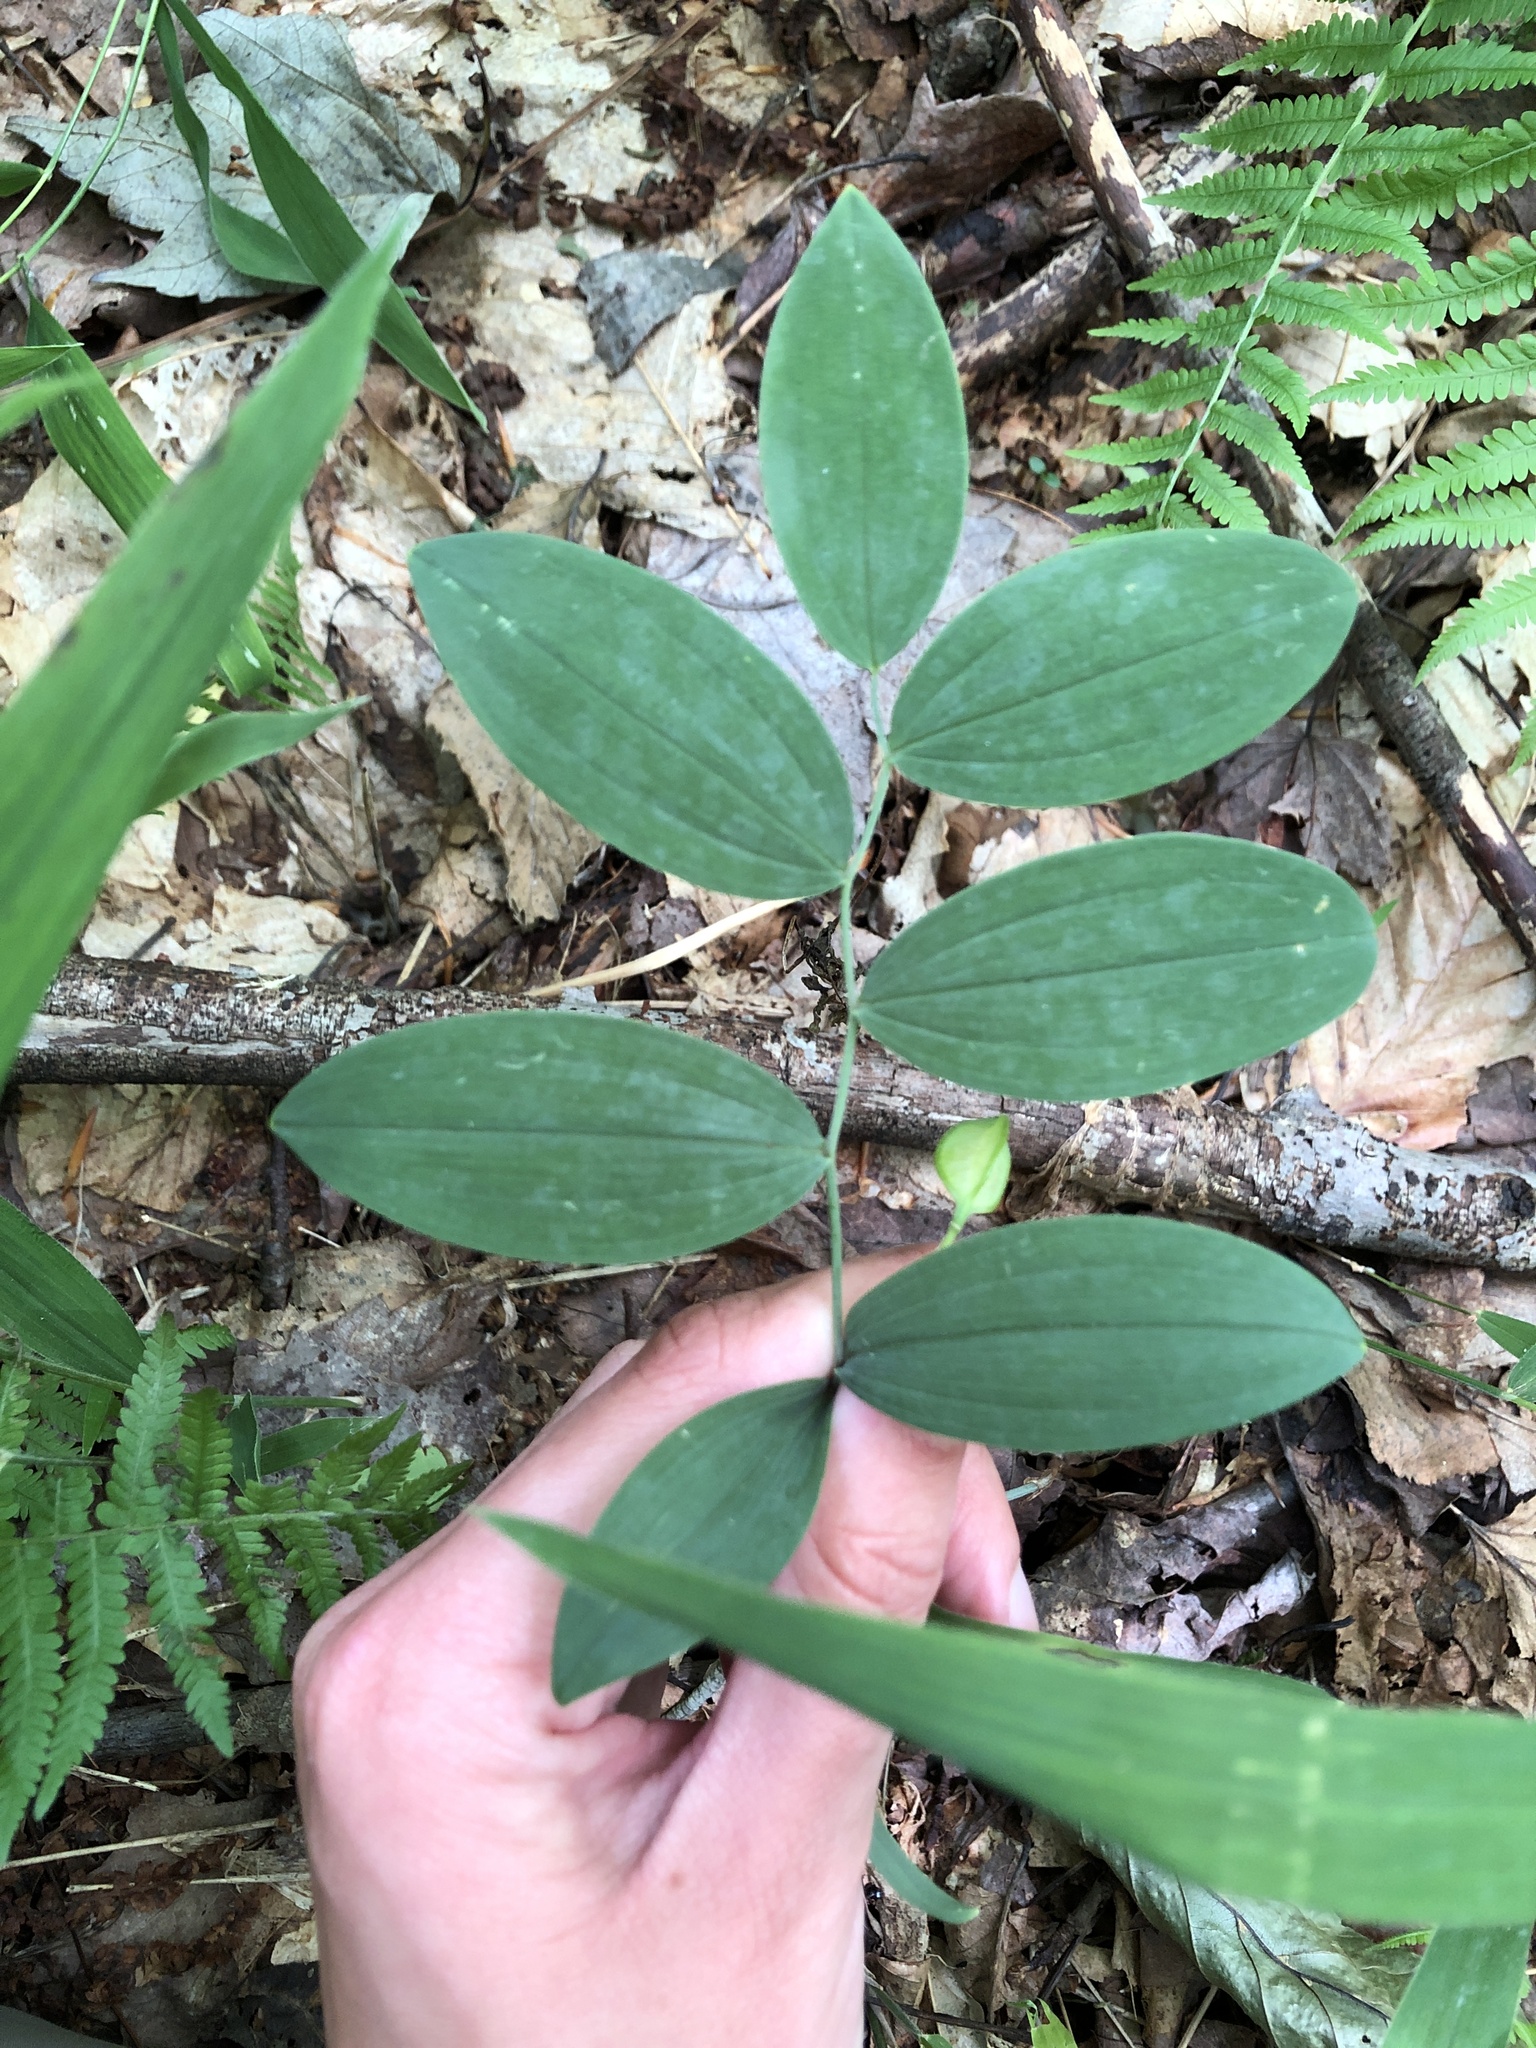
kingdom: Plantae
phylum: Tracheophyta
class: Liliopsida
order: Liliales
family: Colchicaceae
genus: Uvularia
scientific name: Uvularia sessilifolia
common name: Straw-lily
